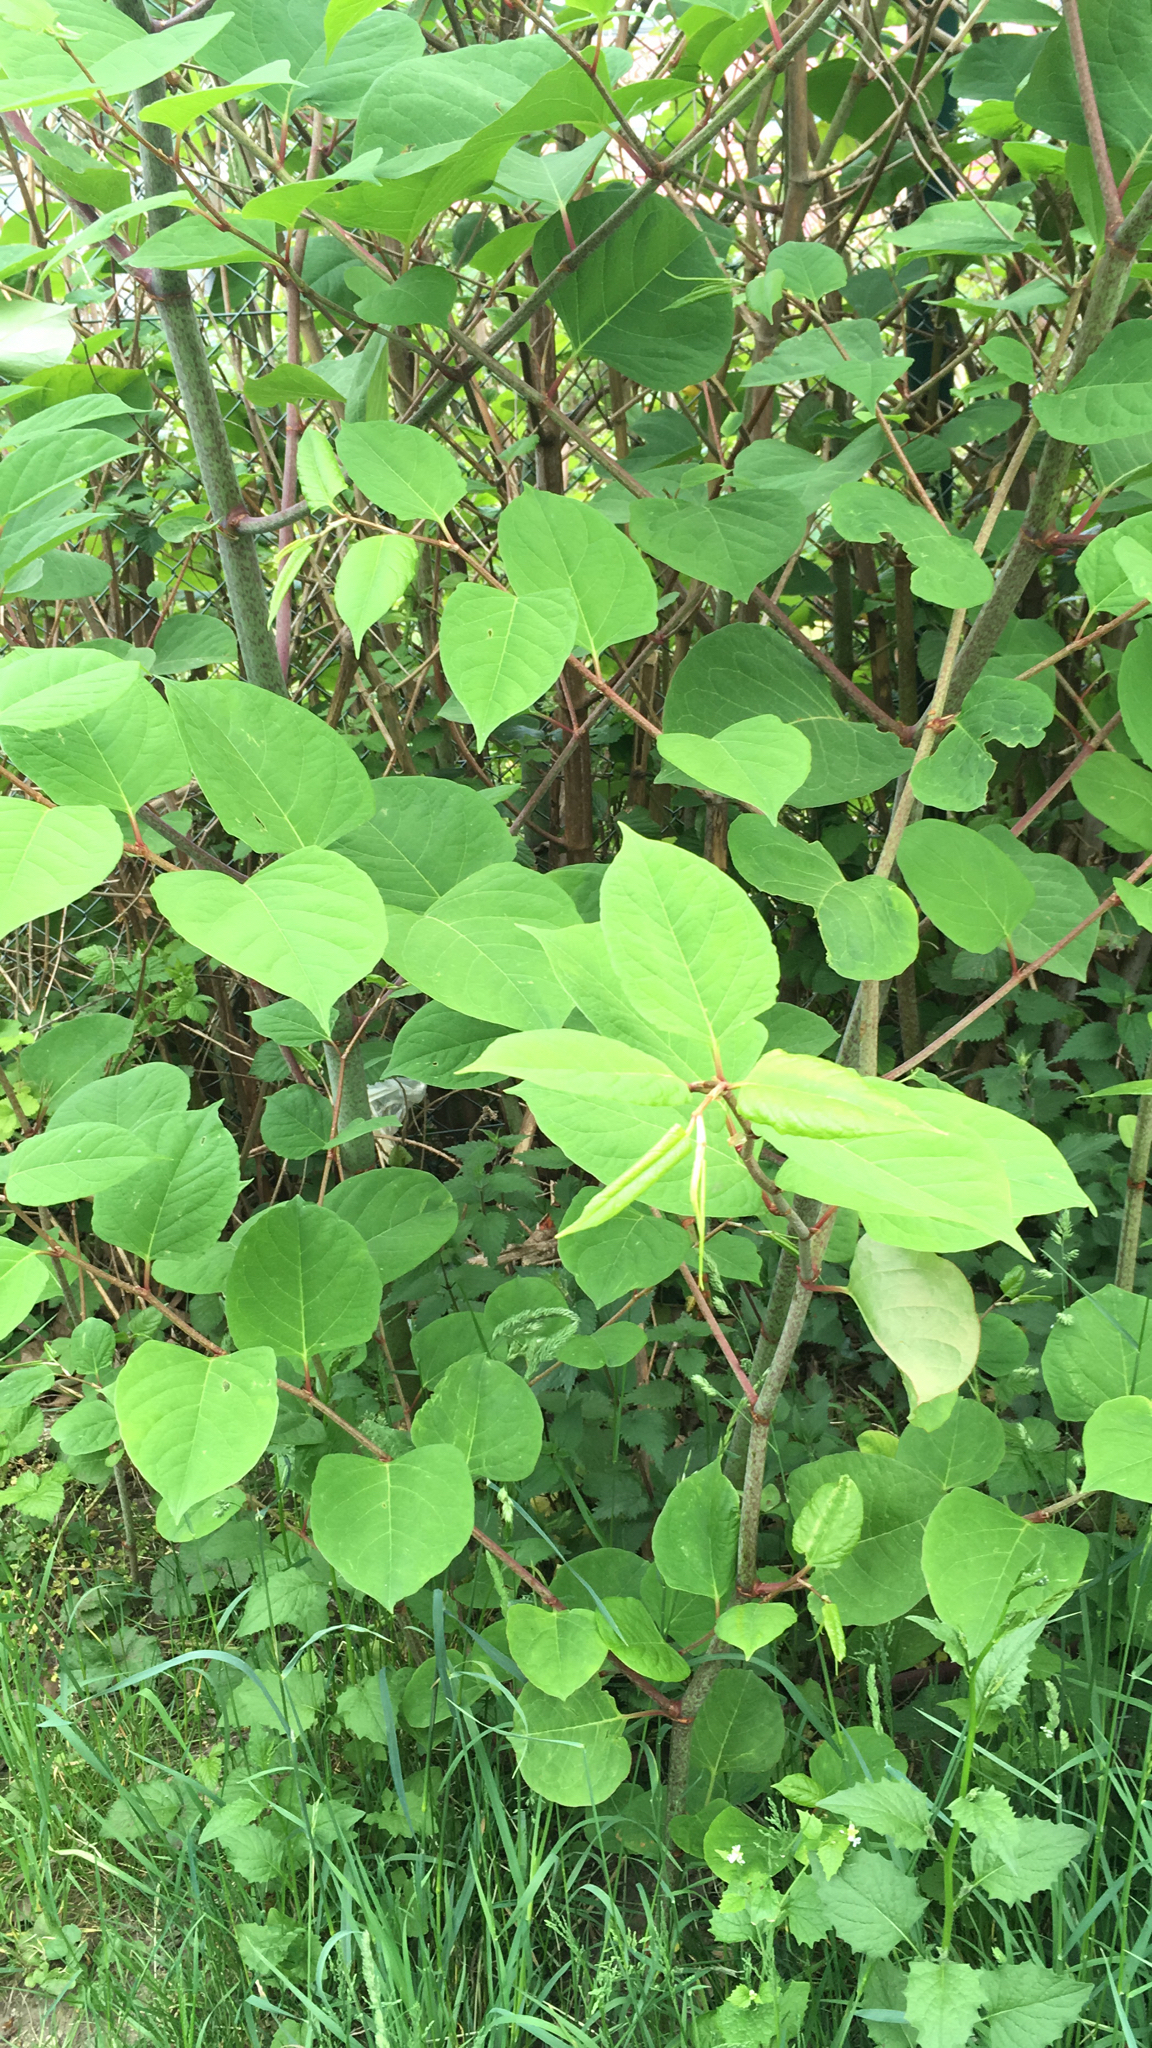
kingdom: Plantae
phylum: Tracheophyta
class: Magnoliopsida
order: Caryophyllales
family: Polygonaceae
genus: Reynoutria
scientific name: Reynoutria japonica
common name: Japanese knotweed
